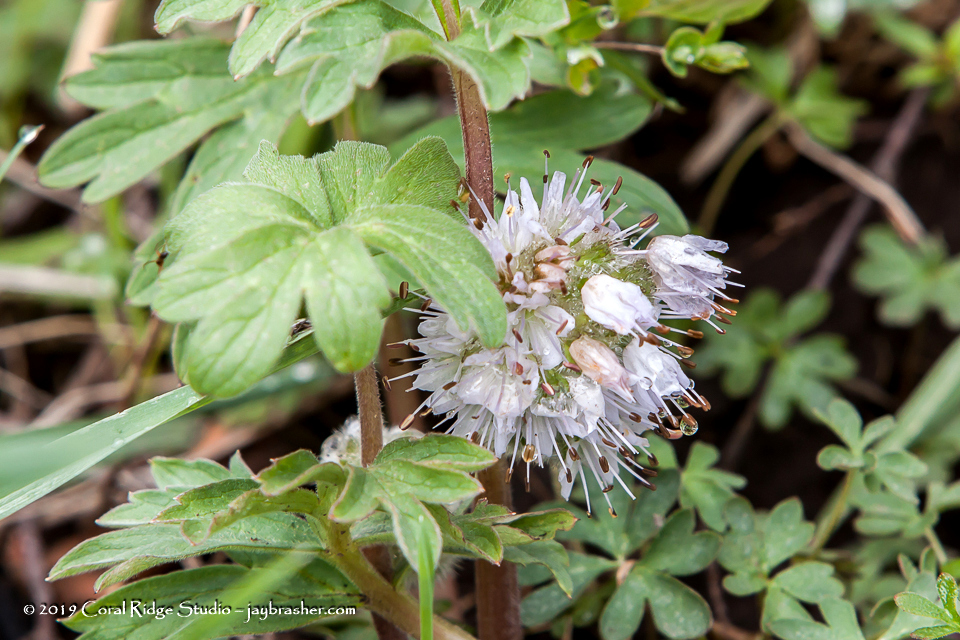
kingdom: Plantae
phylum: Tracheophyta
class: Magnoliopsida
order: Boraginales
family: Hydrophyllaceae
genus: Hydrophyllum
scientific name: Hydrophyllum capitatum
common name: Woollen-breeches
